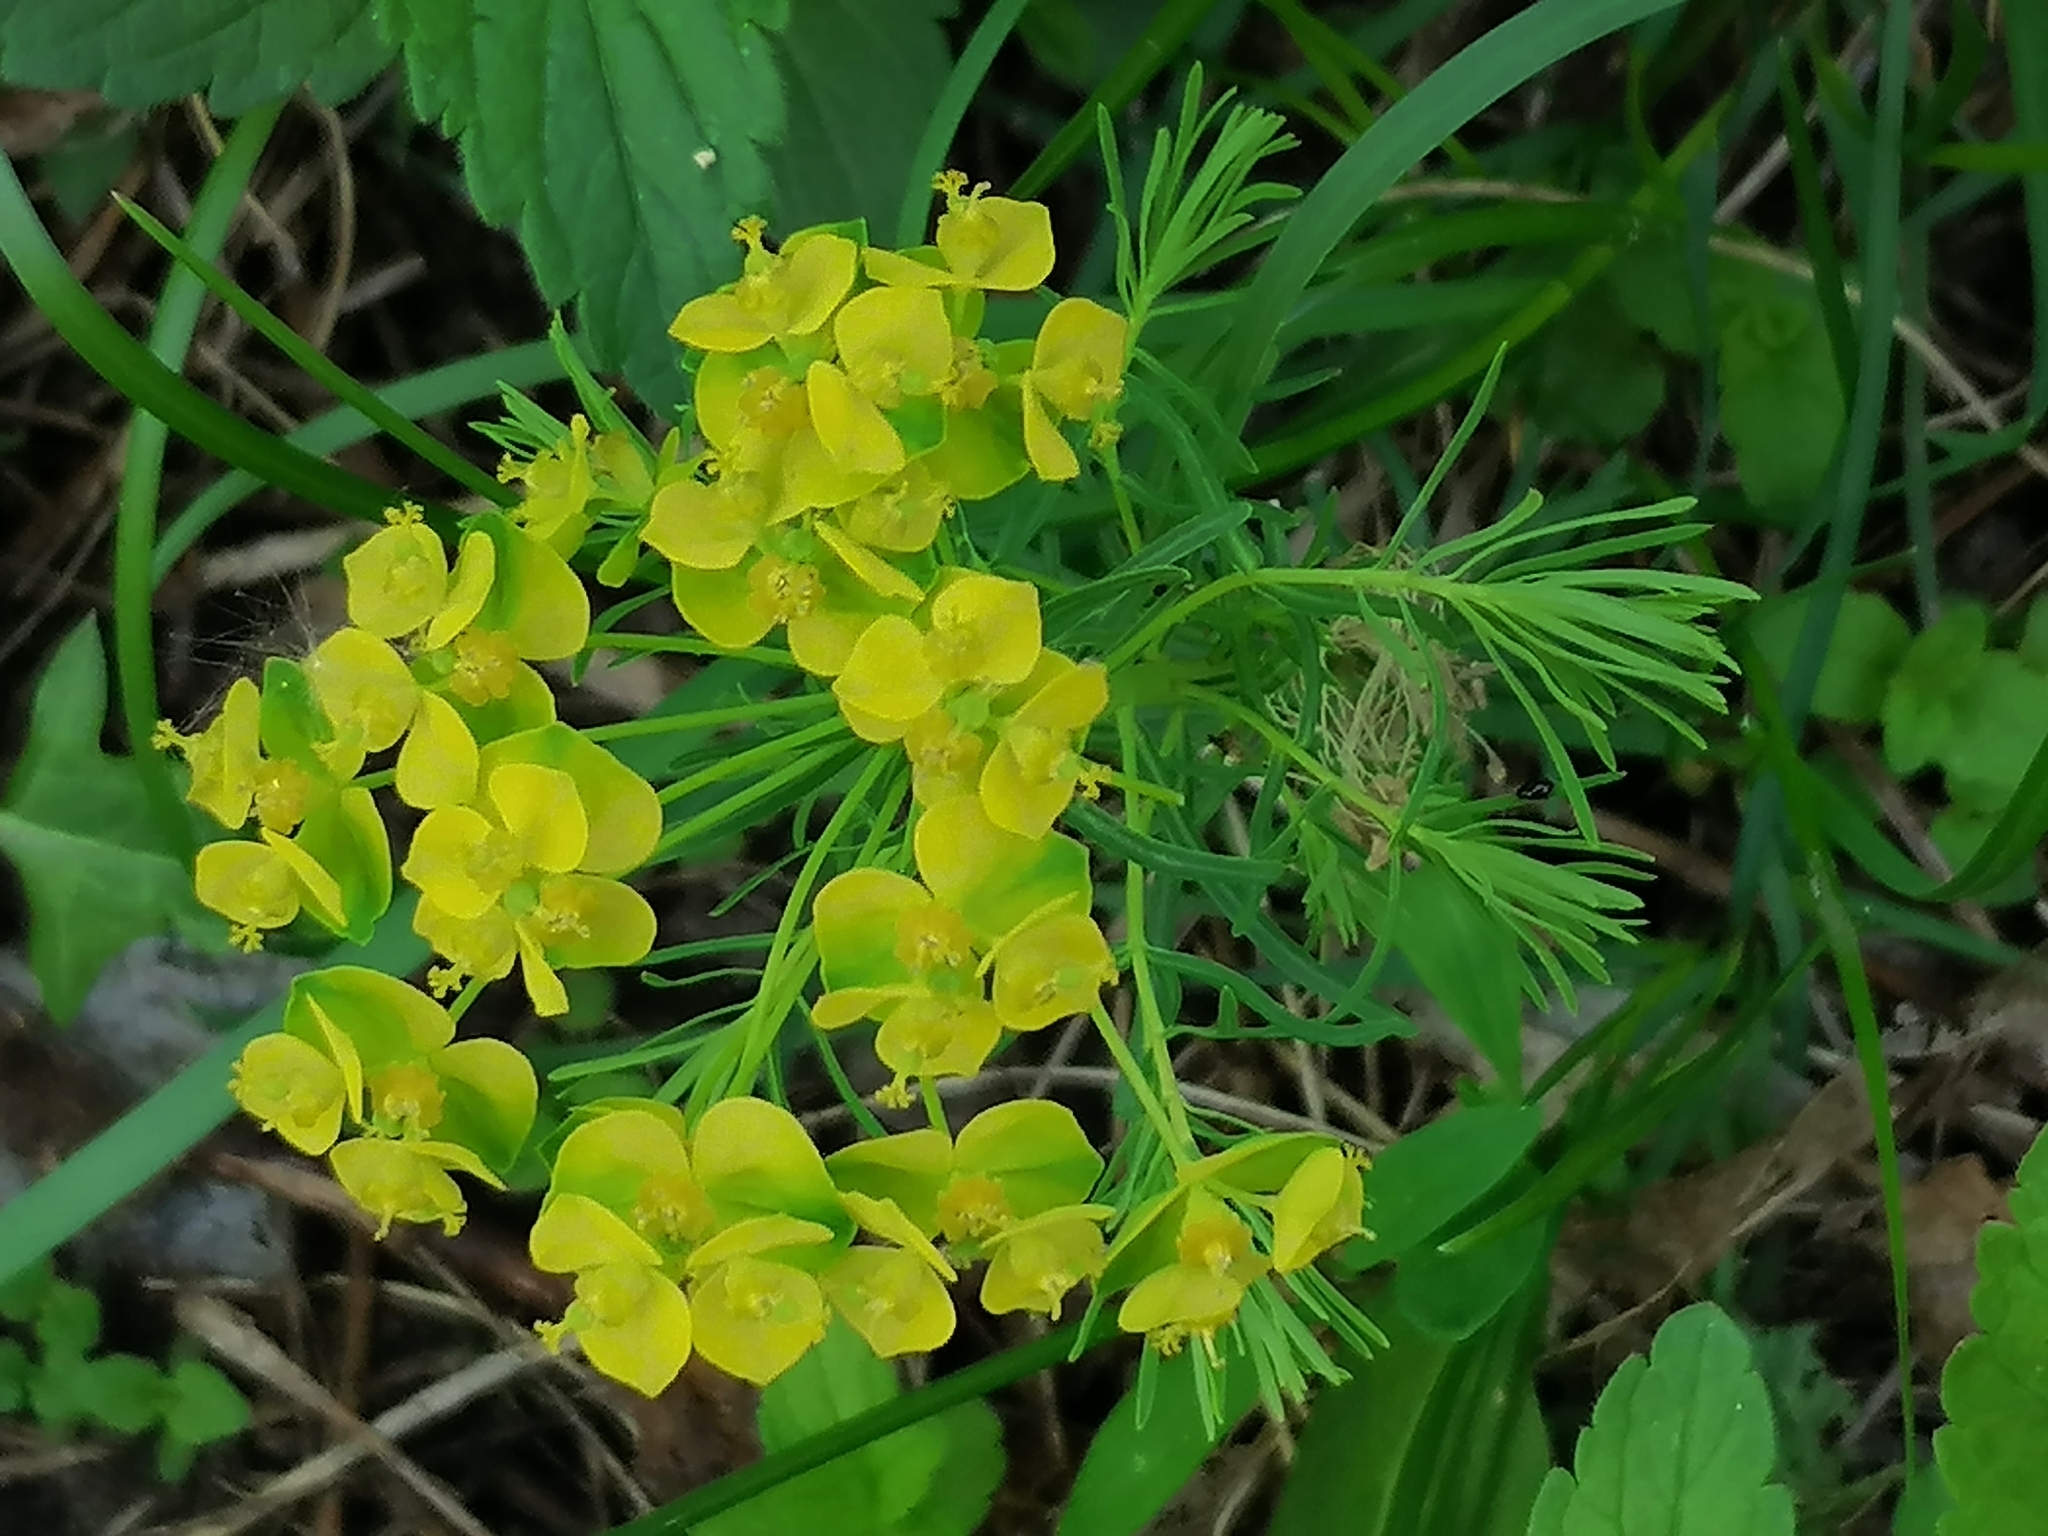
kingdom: Plantae
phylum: Tracheophyta
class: Magnoliopsida
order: Malpighiales
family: Euphorbiaceae
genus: Euphorbia
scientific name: Euphorbia cyparissias
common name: Cypress spurge
